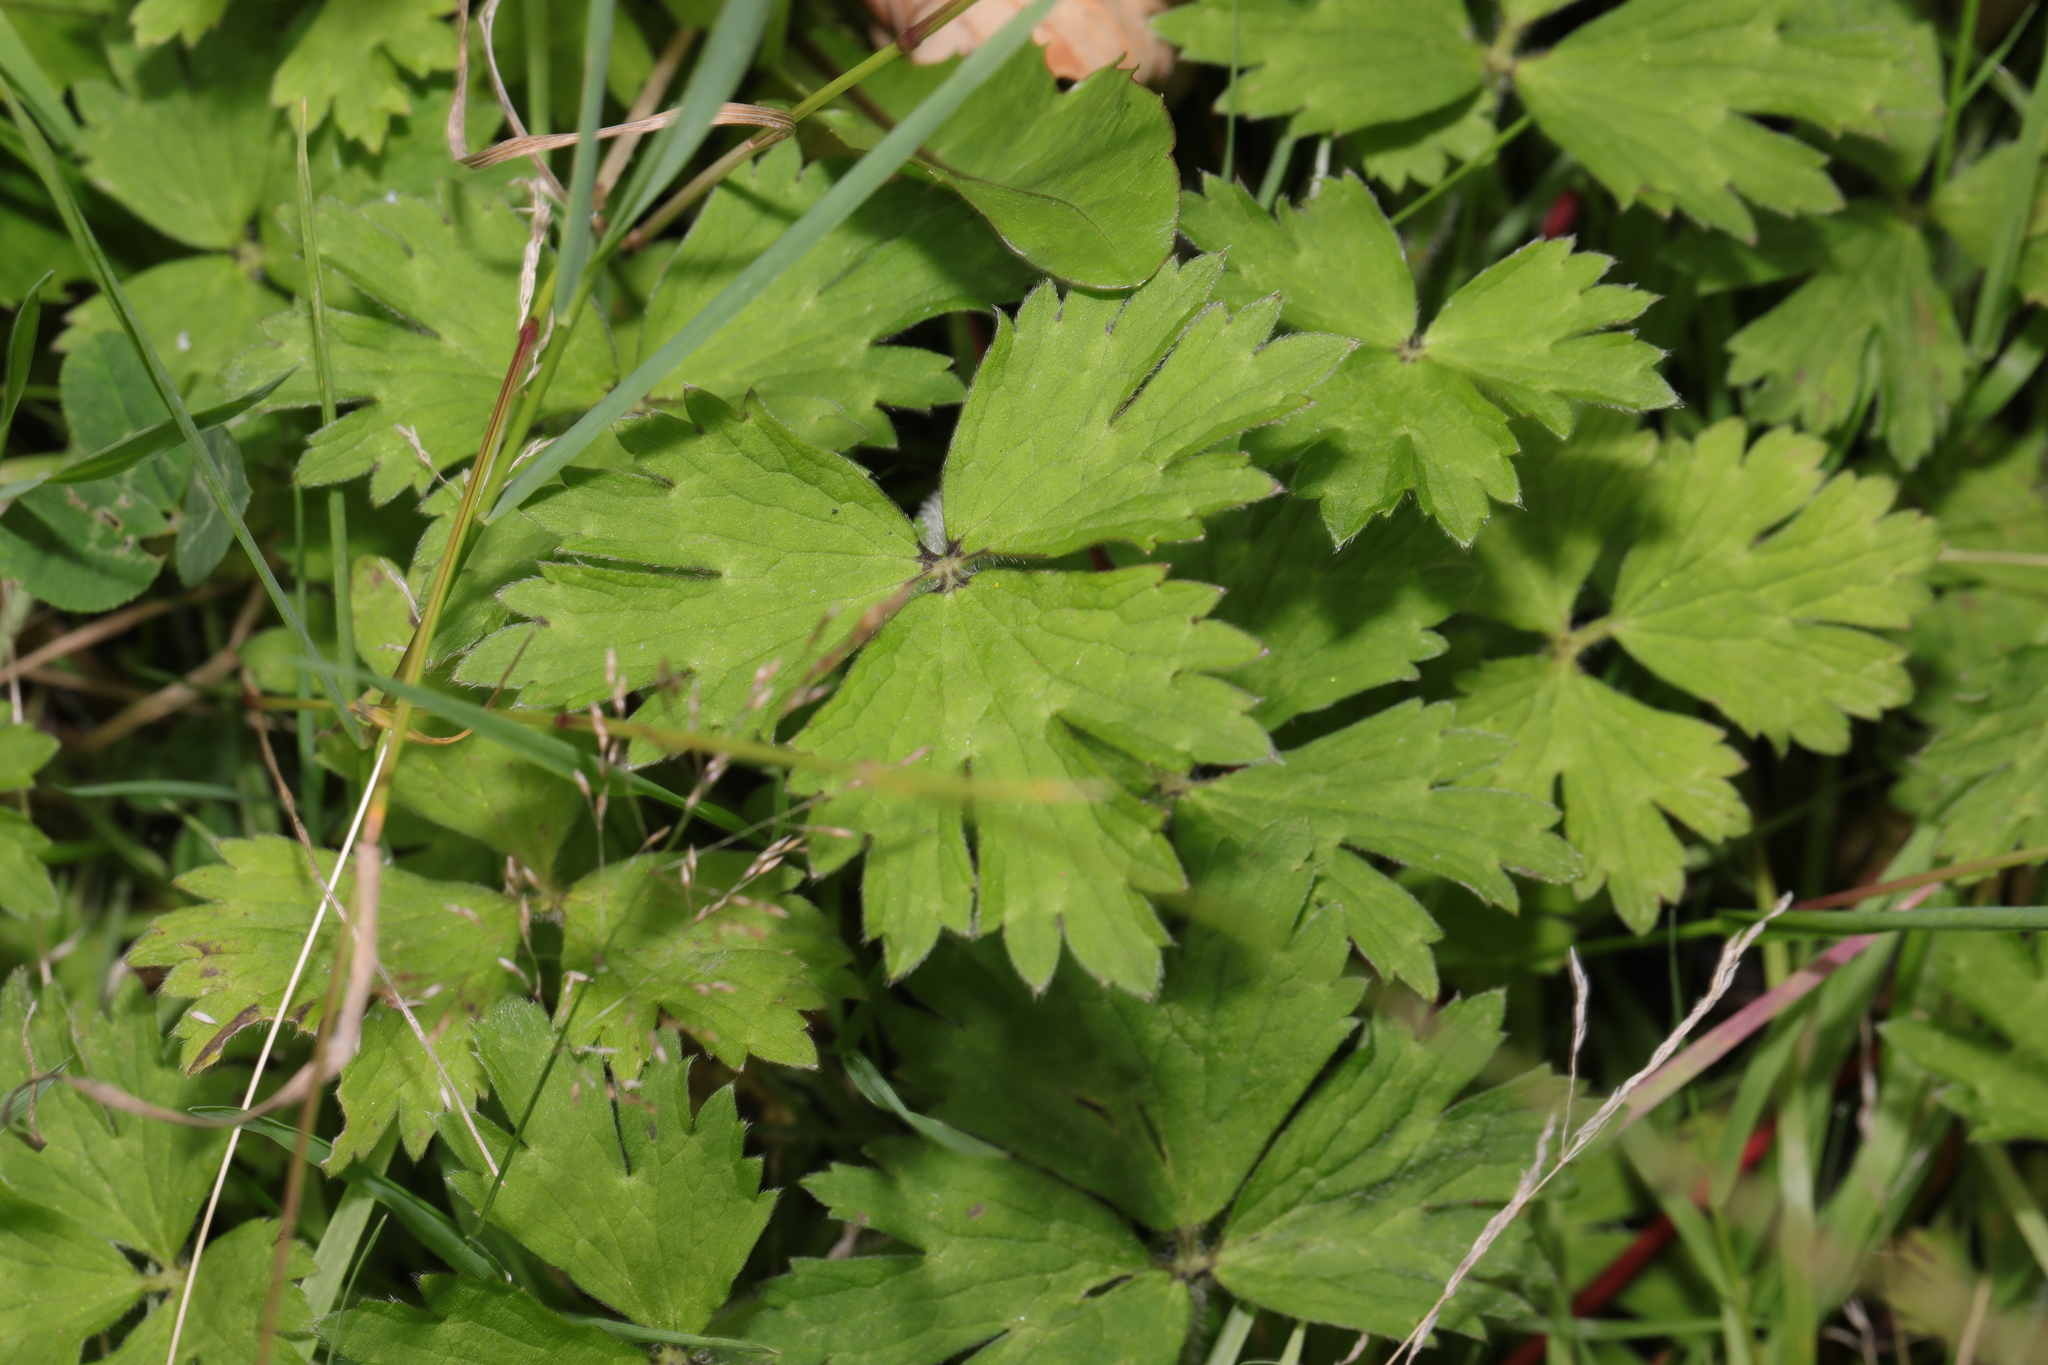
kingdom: Plantae
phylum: Tracheophyta
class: Magnoliopsida
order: Ranunculales
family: Ranunculaceae
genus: Ranunculus
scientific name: Ranunculus repens
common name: Creeping buttercup
